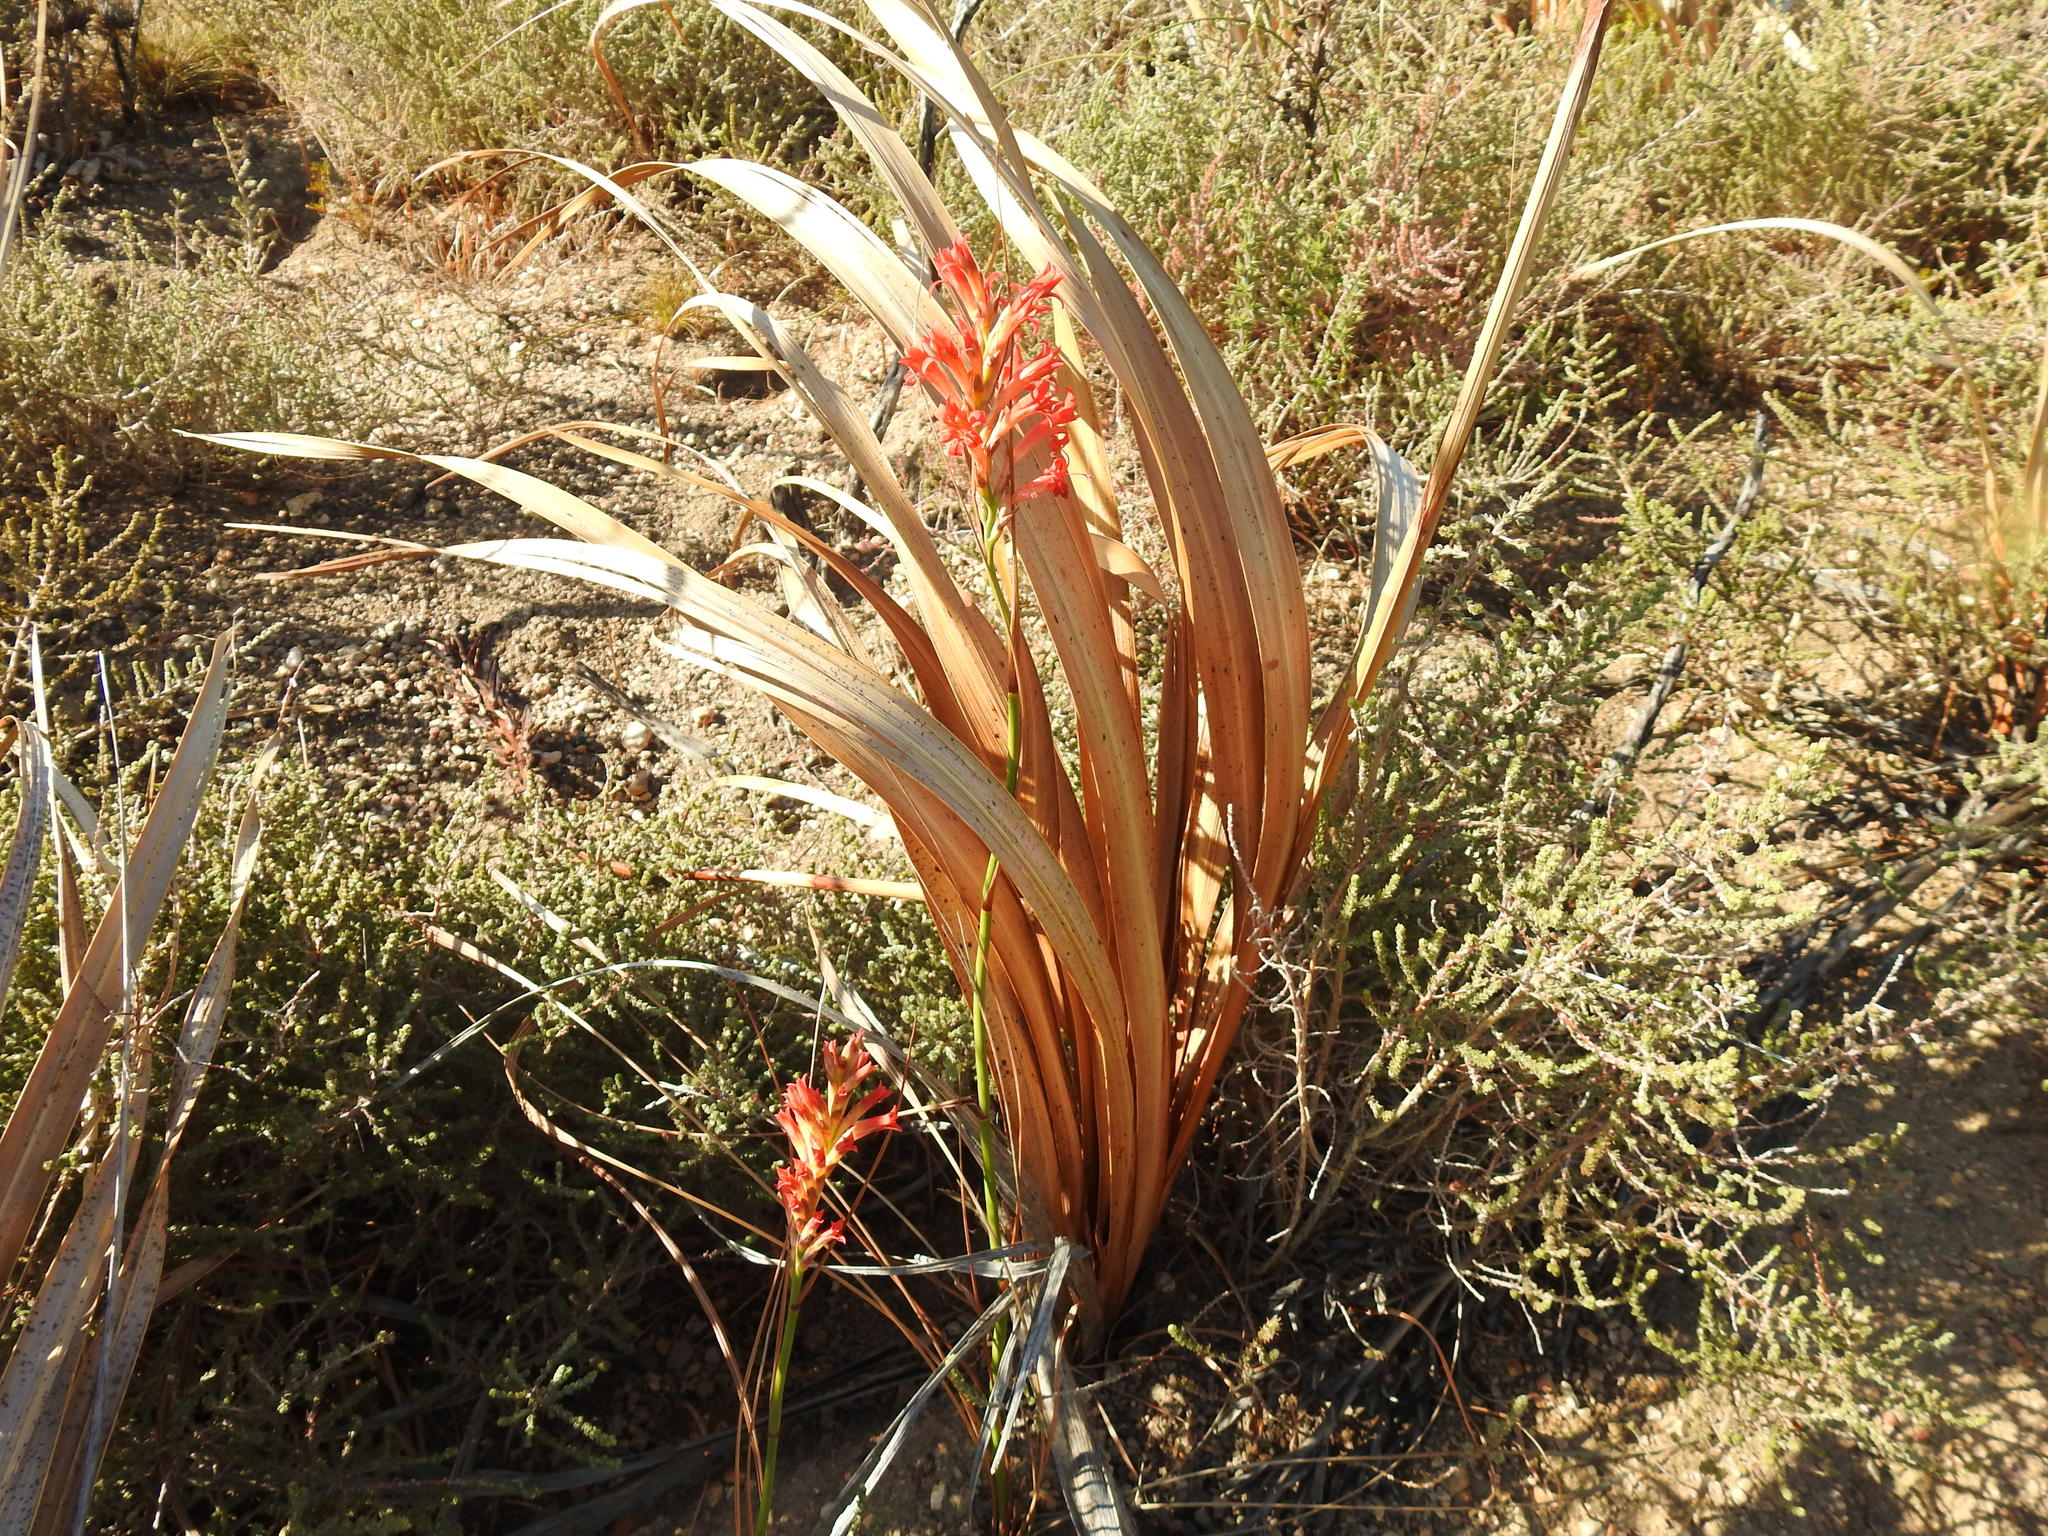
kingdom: Plantae
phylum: Tracheophyta
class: Liliopsida
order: Asparagales
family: Iridaceae
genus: Tritoniopsis
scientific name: Tritoniopsis triticea
